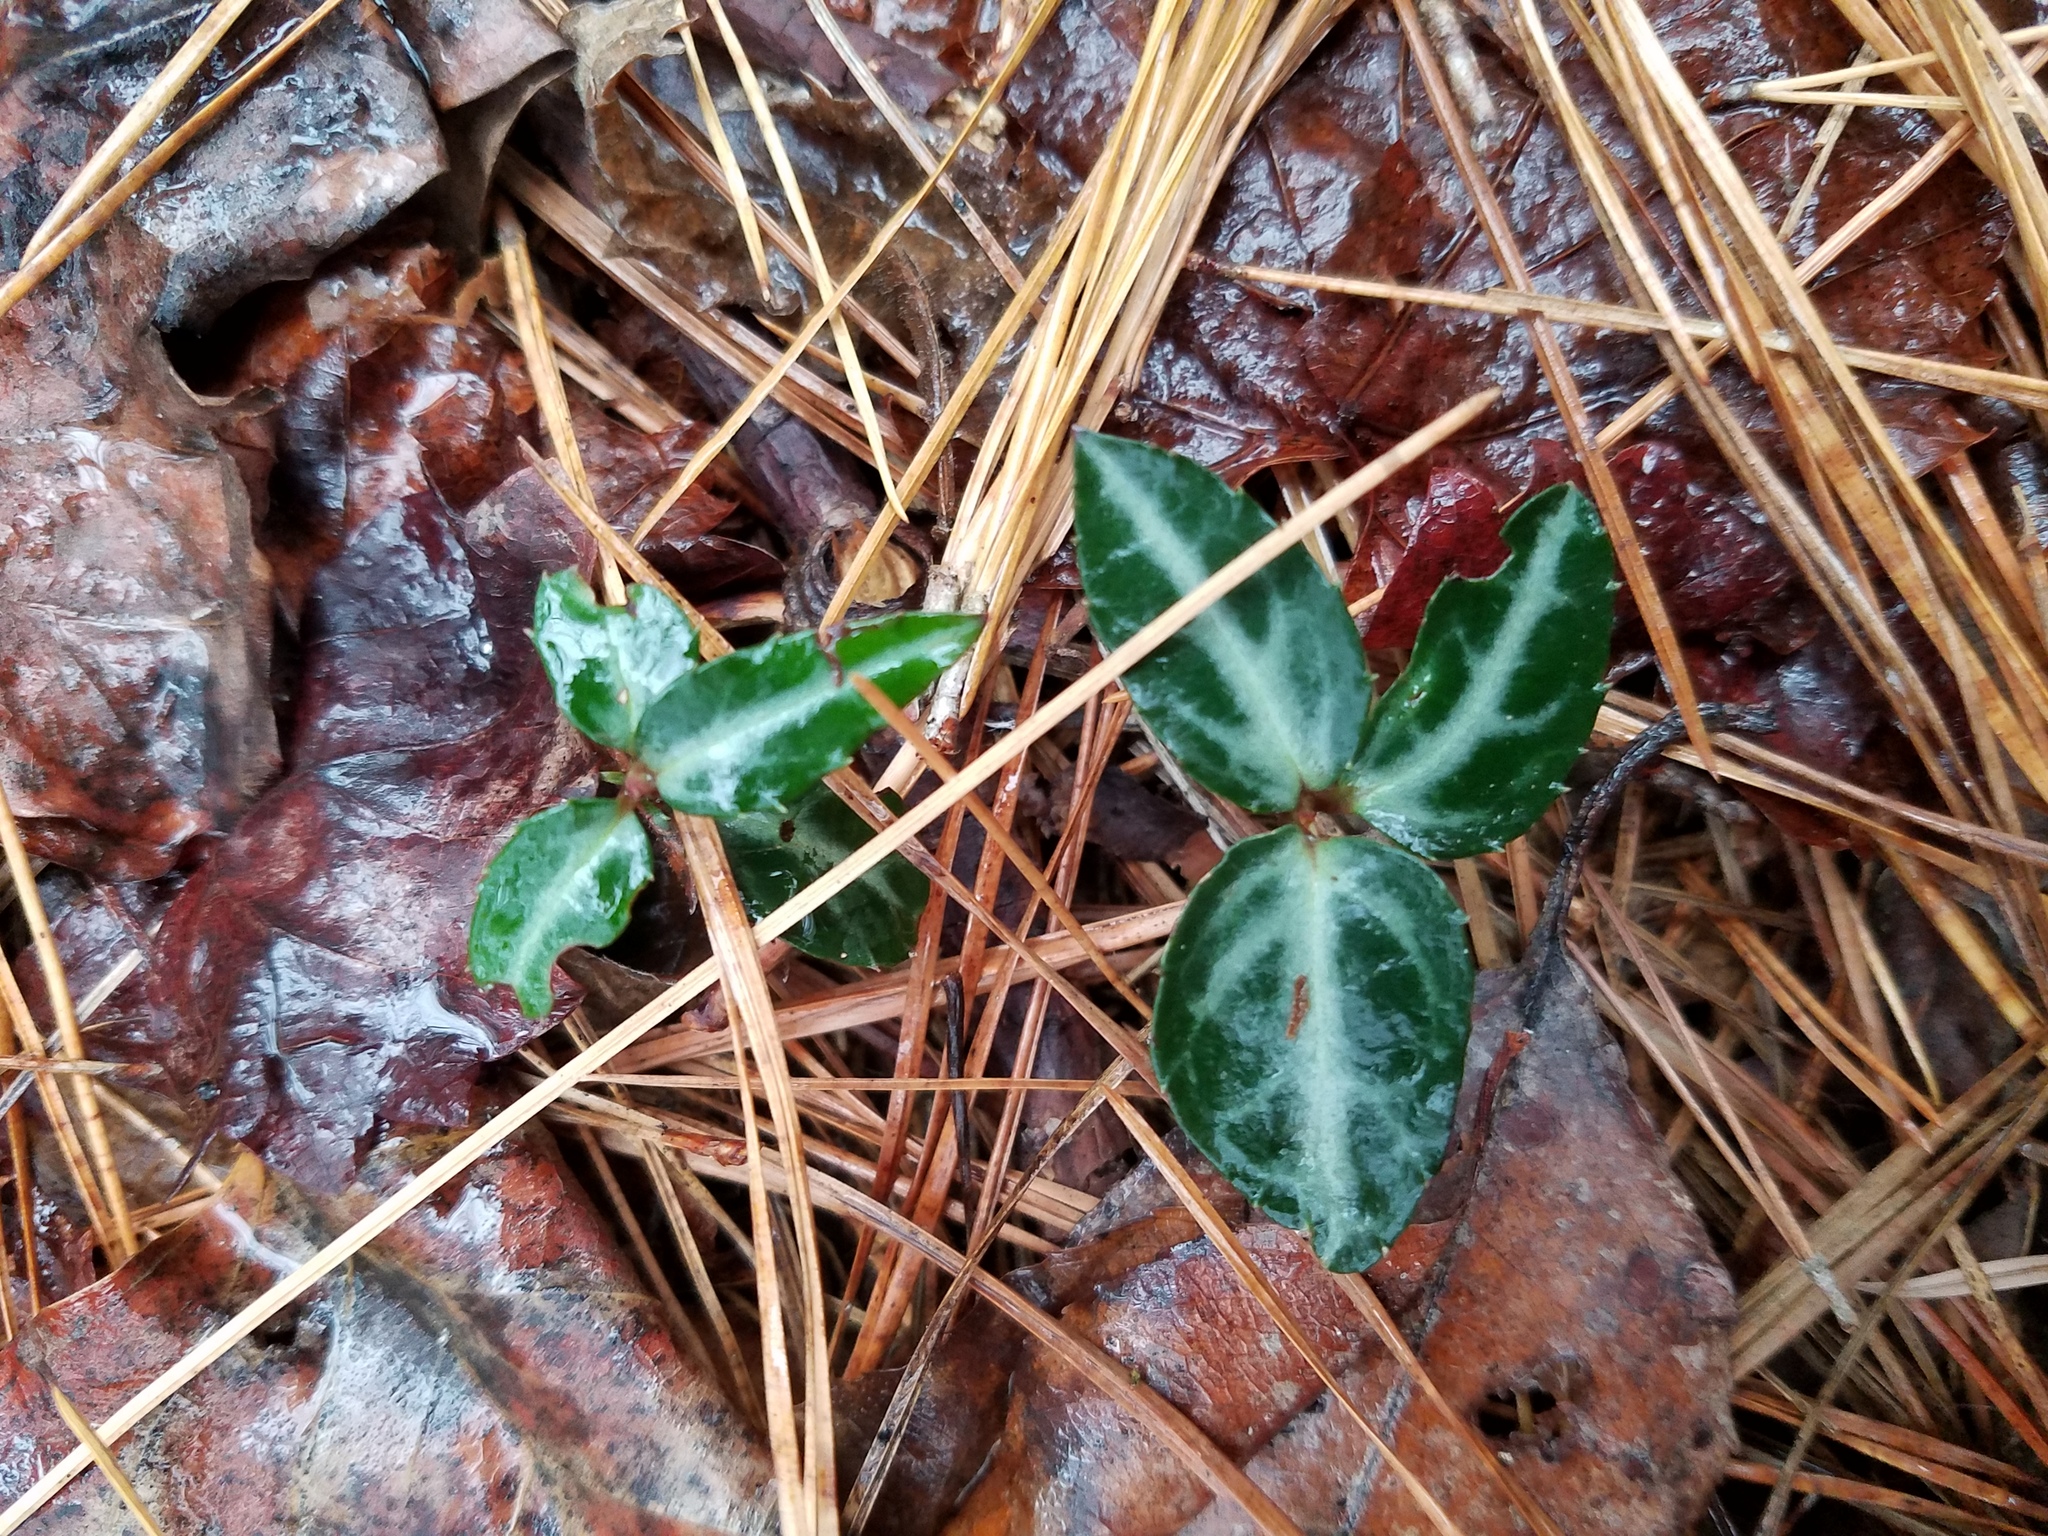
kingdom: Plantae
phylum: Tracheophyta
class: Magnoliopsida
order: Ericales
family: Ericaceae
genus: Chimaphila
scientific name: Chimaphila maculata
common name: Spotted pipsissewa
